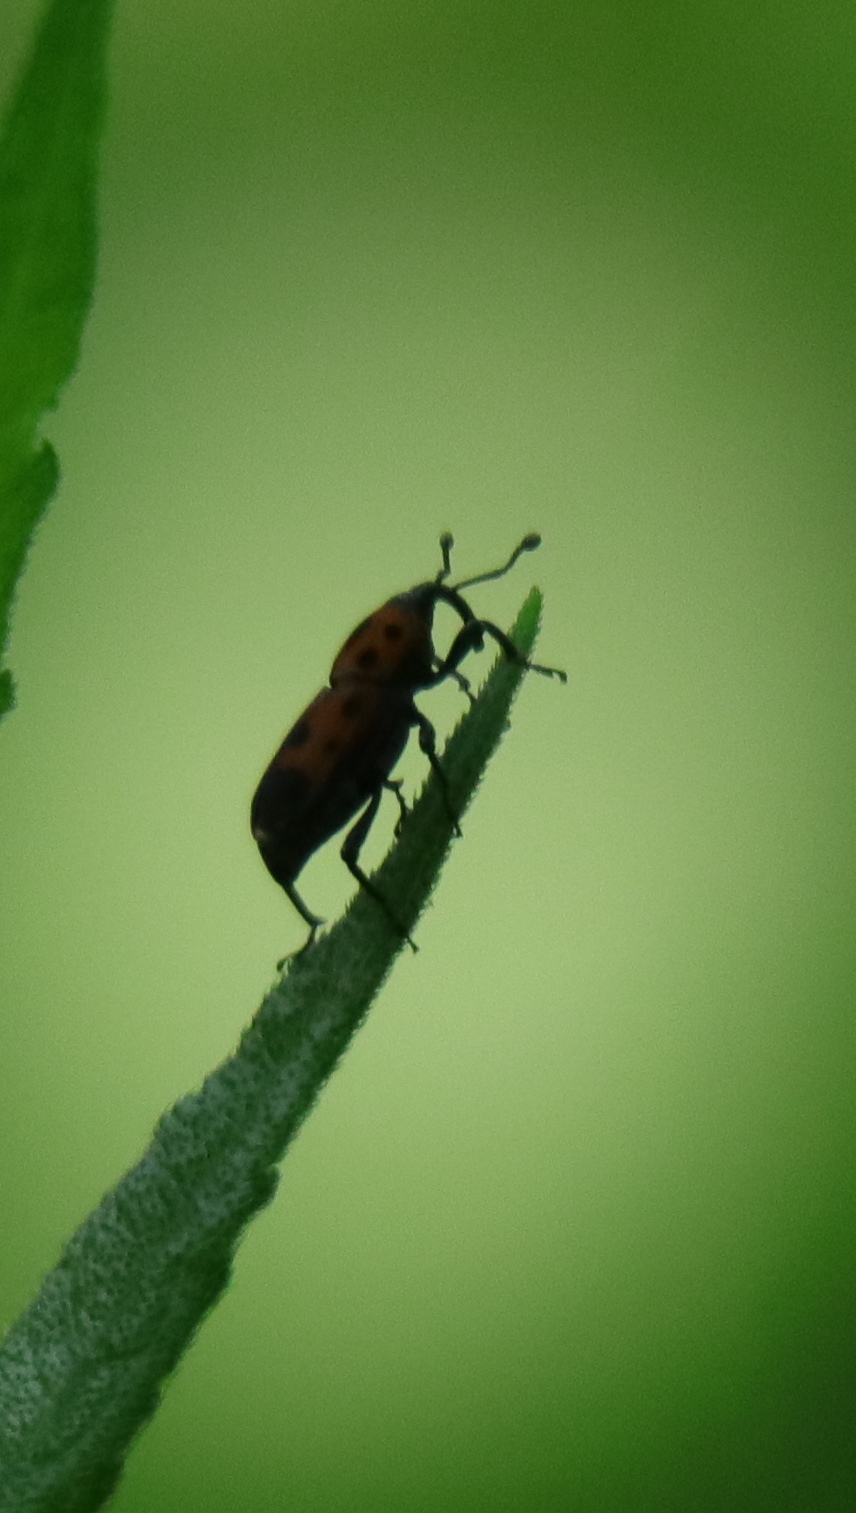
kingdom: Animalia
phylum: Arthropoda
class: Insecta
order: Coleoptera
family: Dryophthoridae
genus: Rhodobaenus
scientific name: Rhodobaenus quinquepunctatus
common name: Cocklebur weevil
